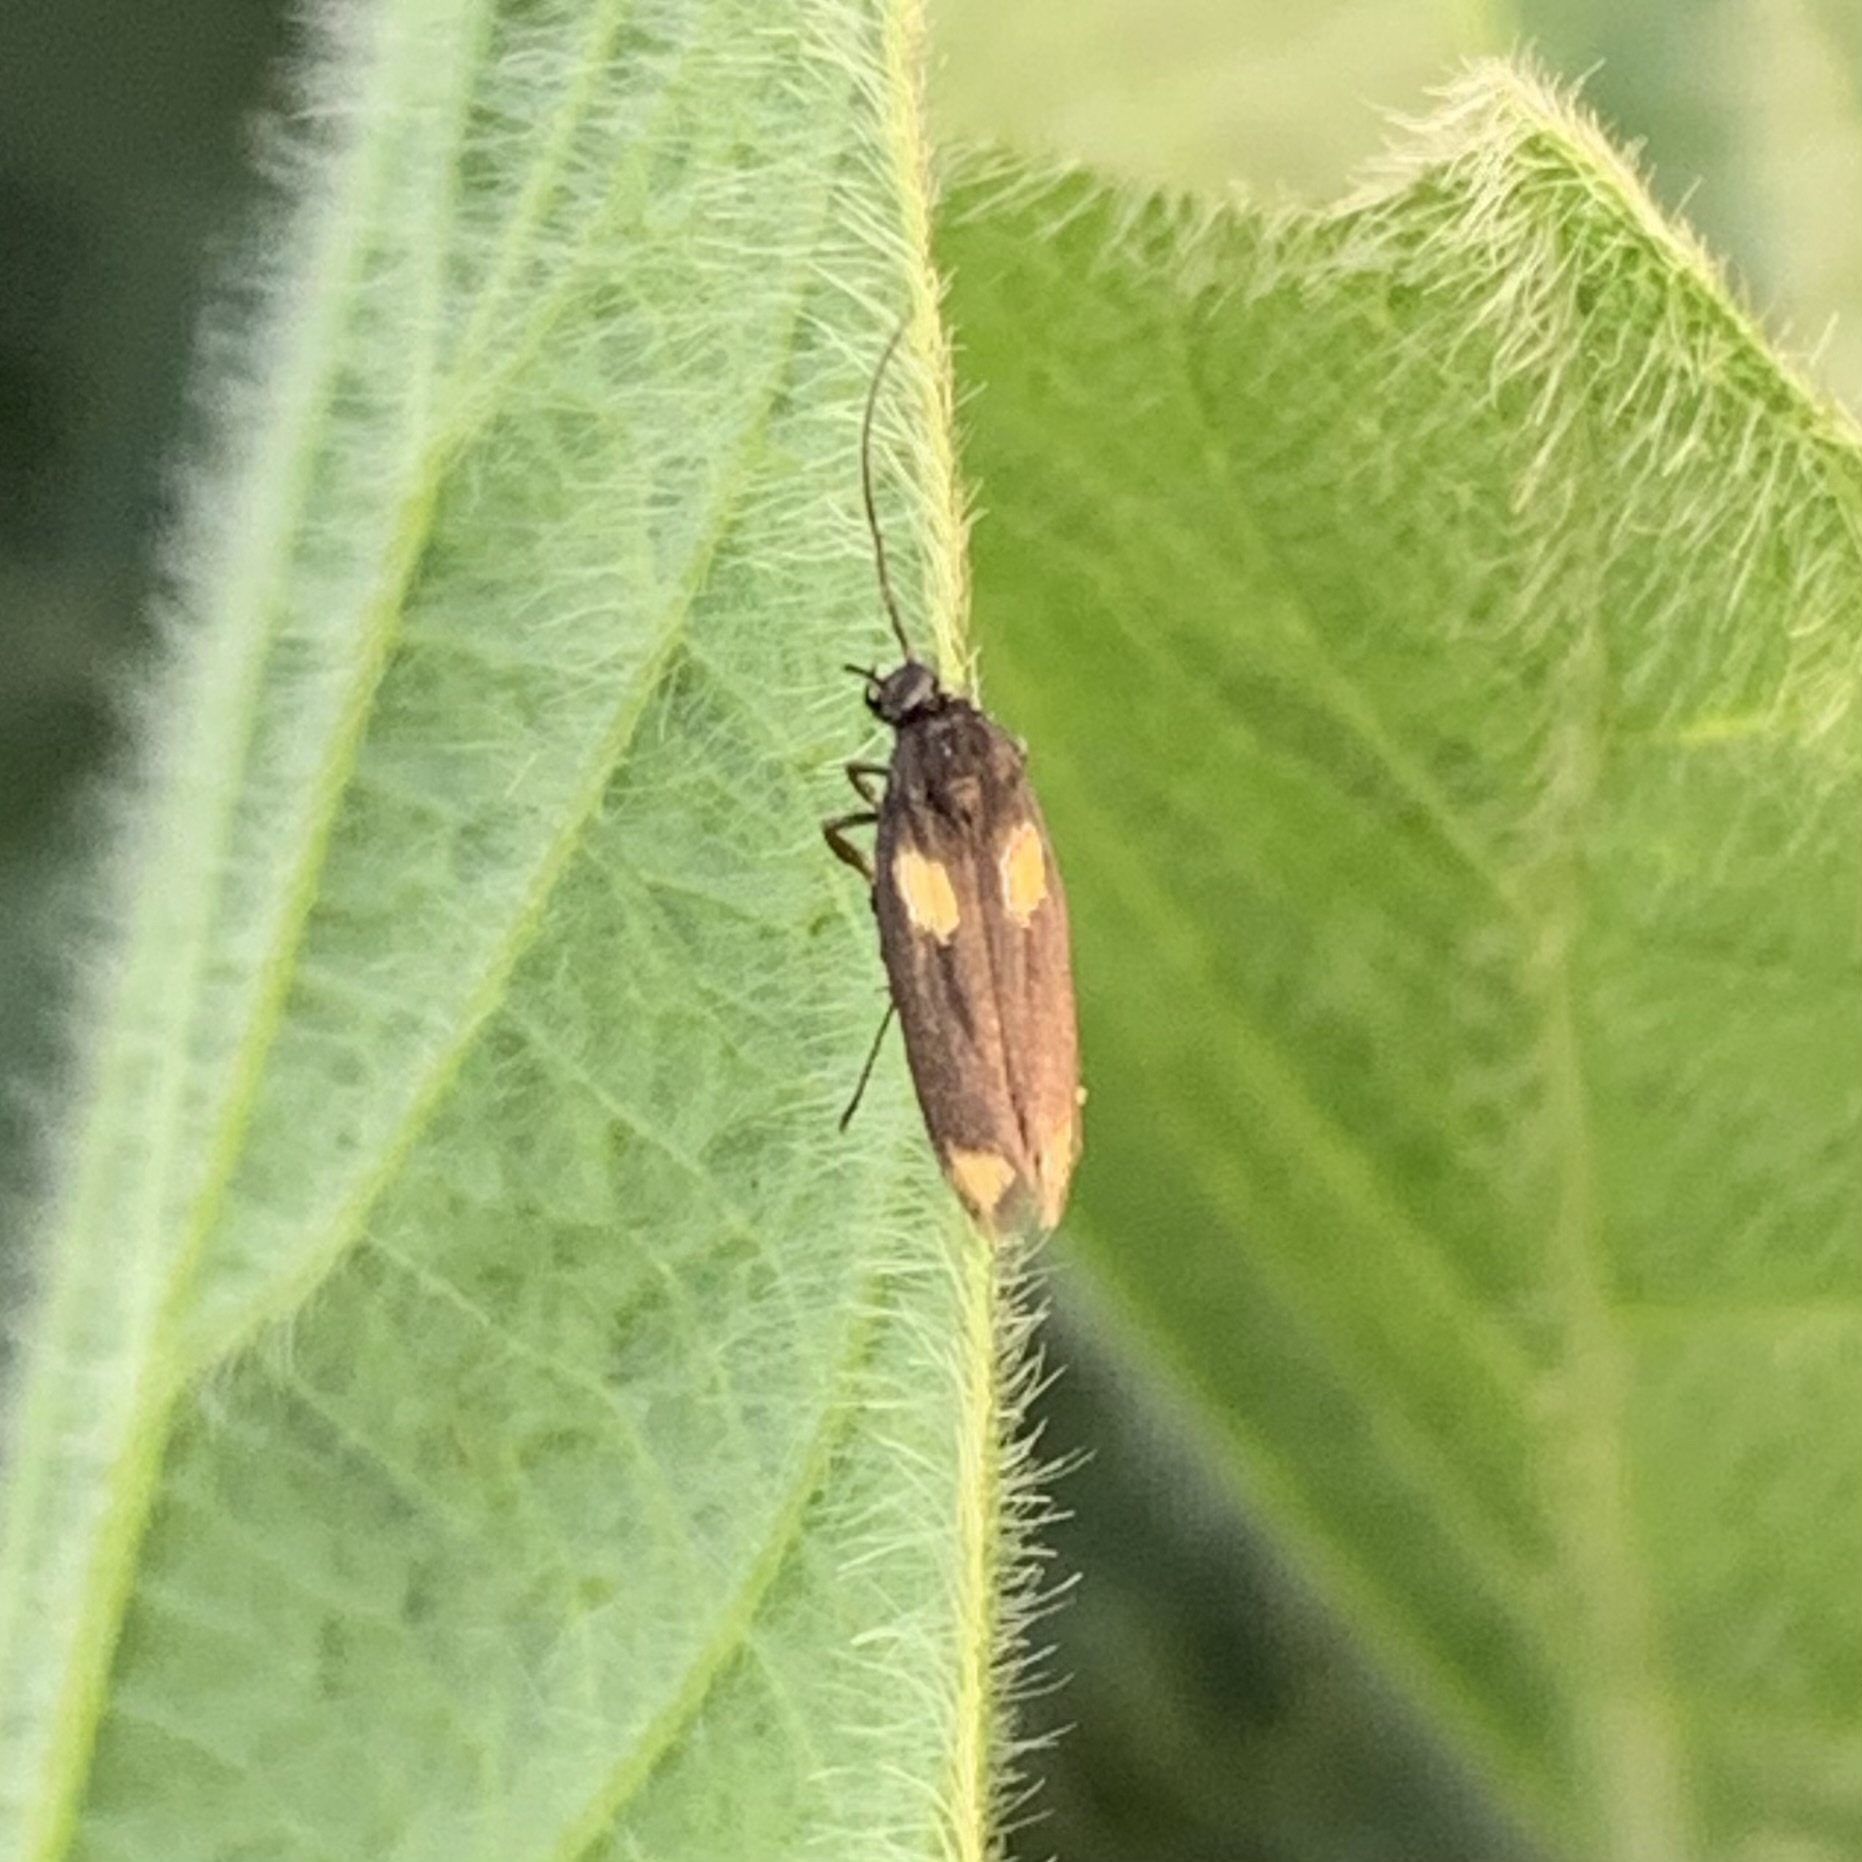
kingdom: Animalia
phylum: Arthropoda
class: Insecta
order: Lepidoptera
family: Scythrididae
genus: Scythris
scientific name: Scythris sinensis
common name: Kentish owlet
